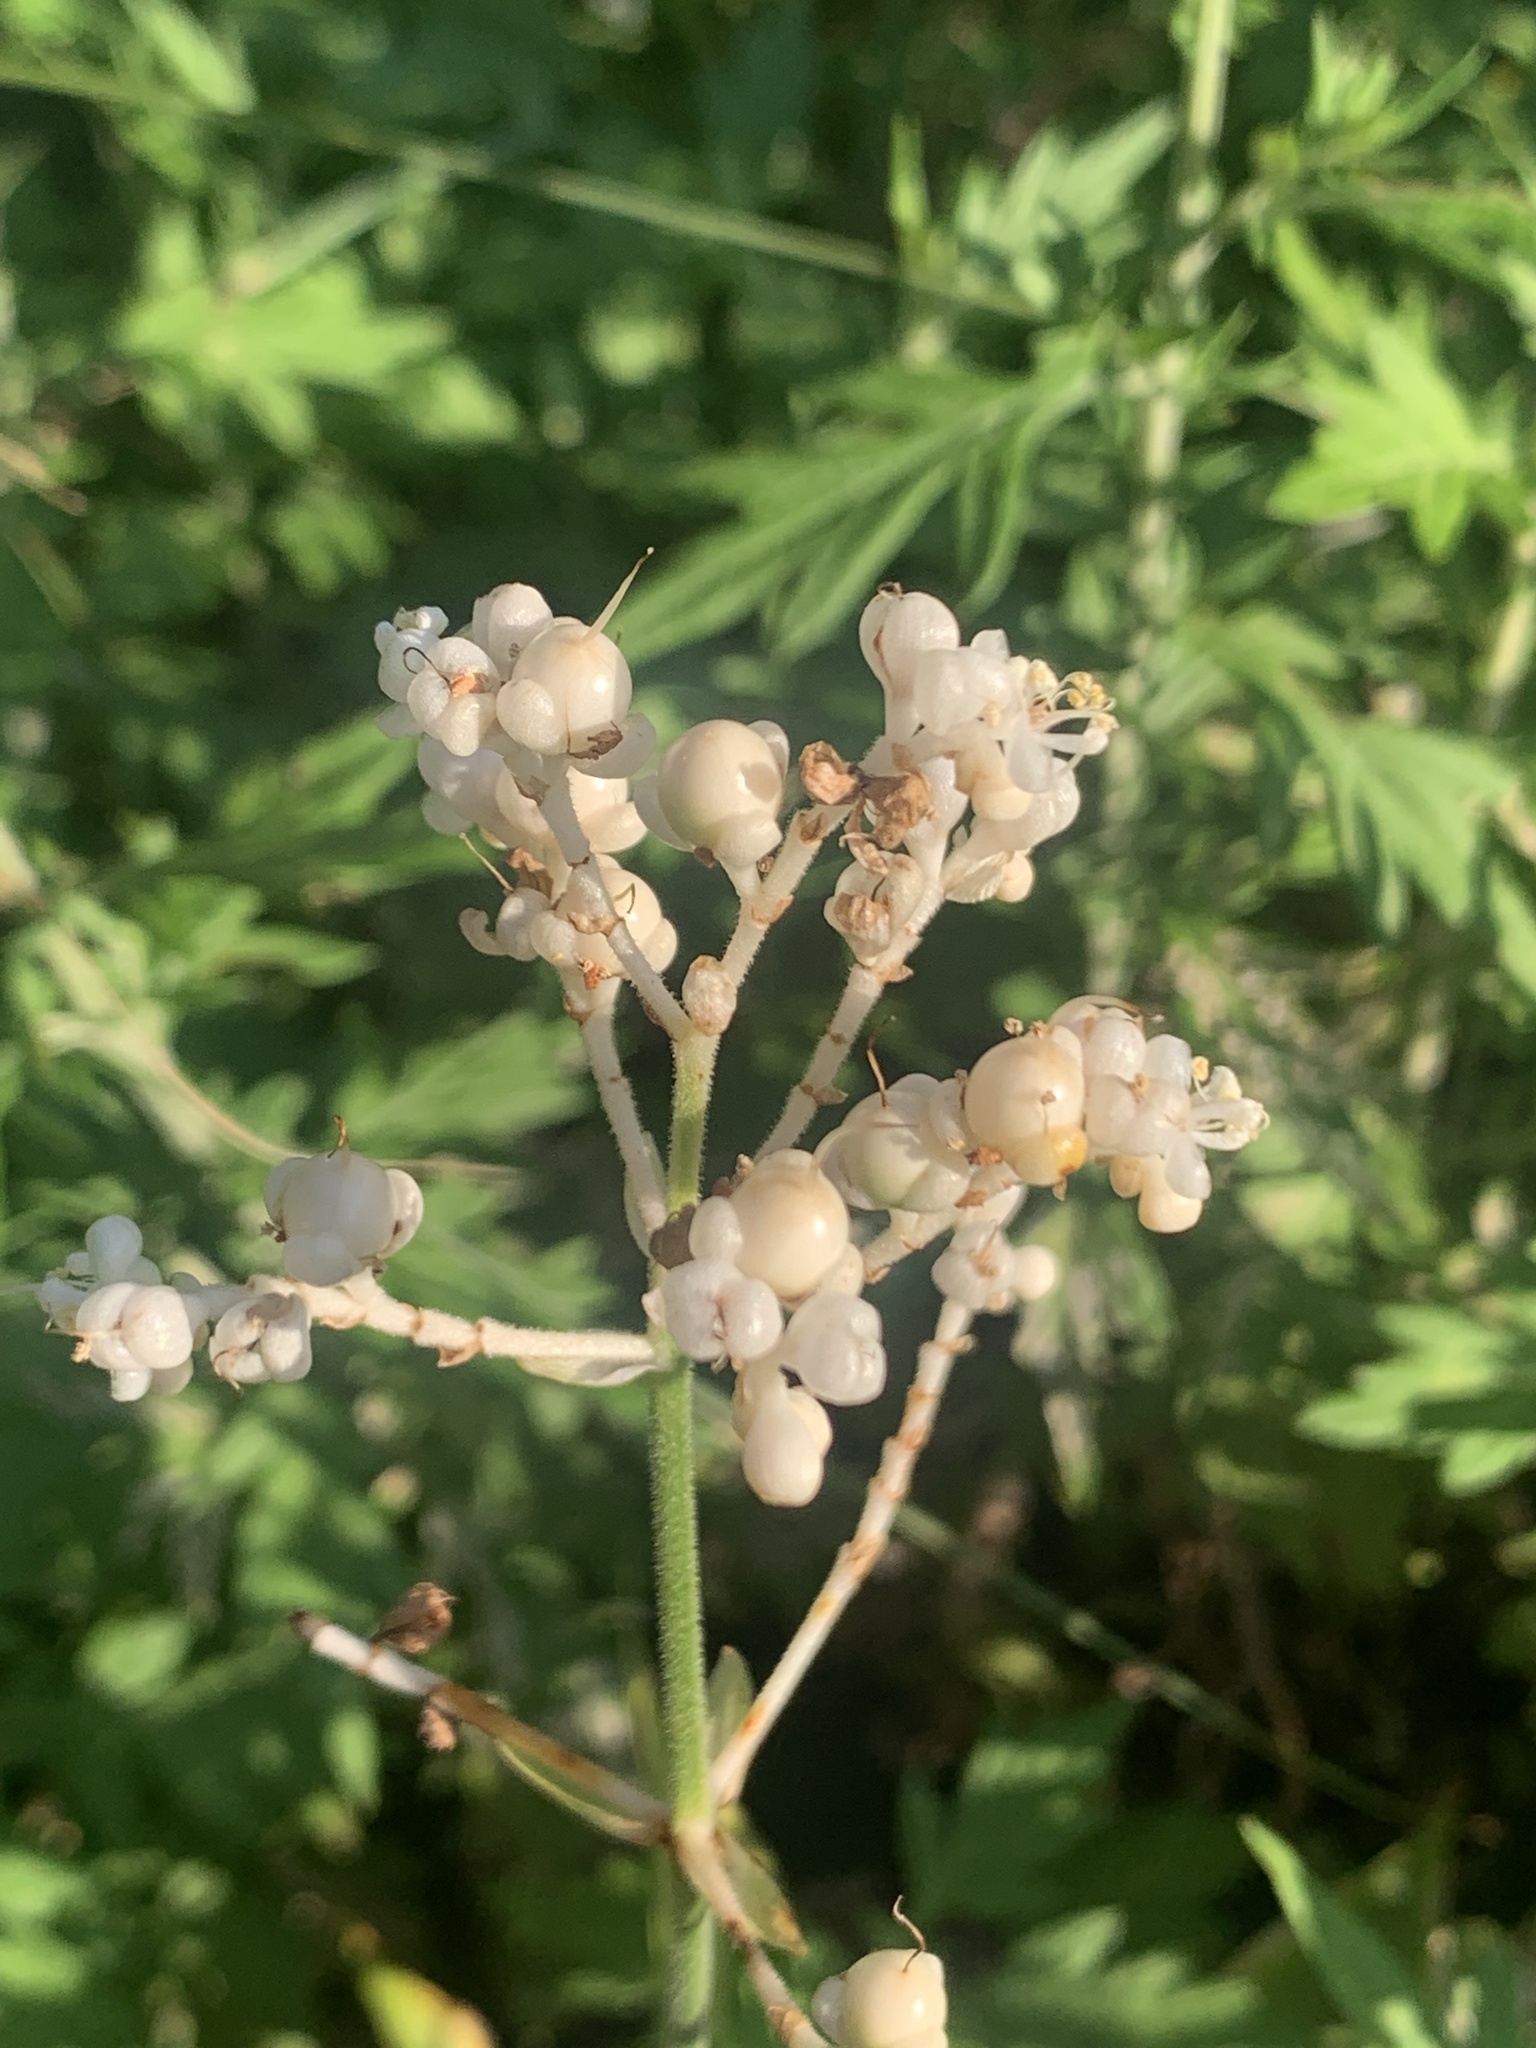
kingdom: Plantae
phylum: Tracheophyta
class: Liliopsida
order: Commelinales
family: Commelinaceae
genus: Pollia
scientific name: Pollia japonica
